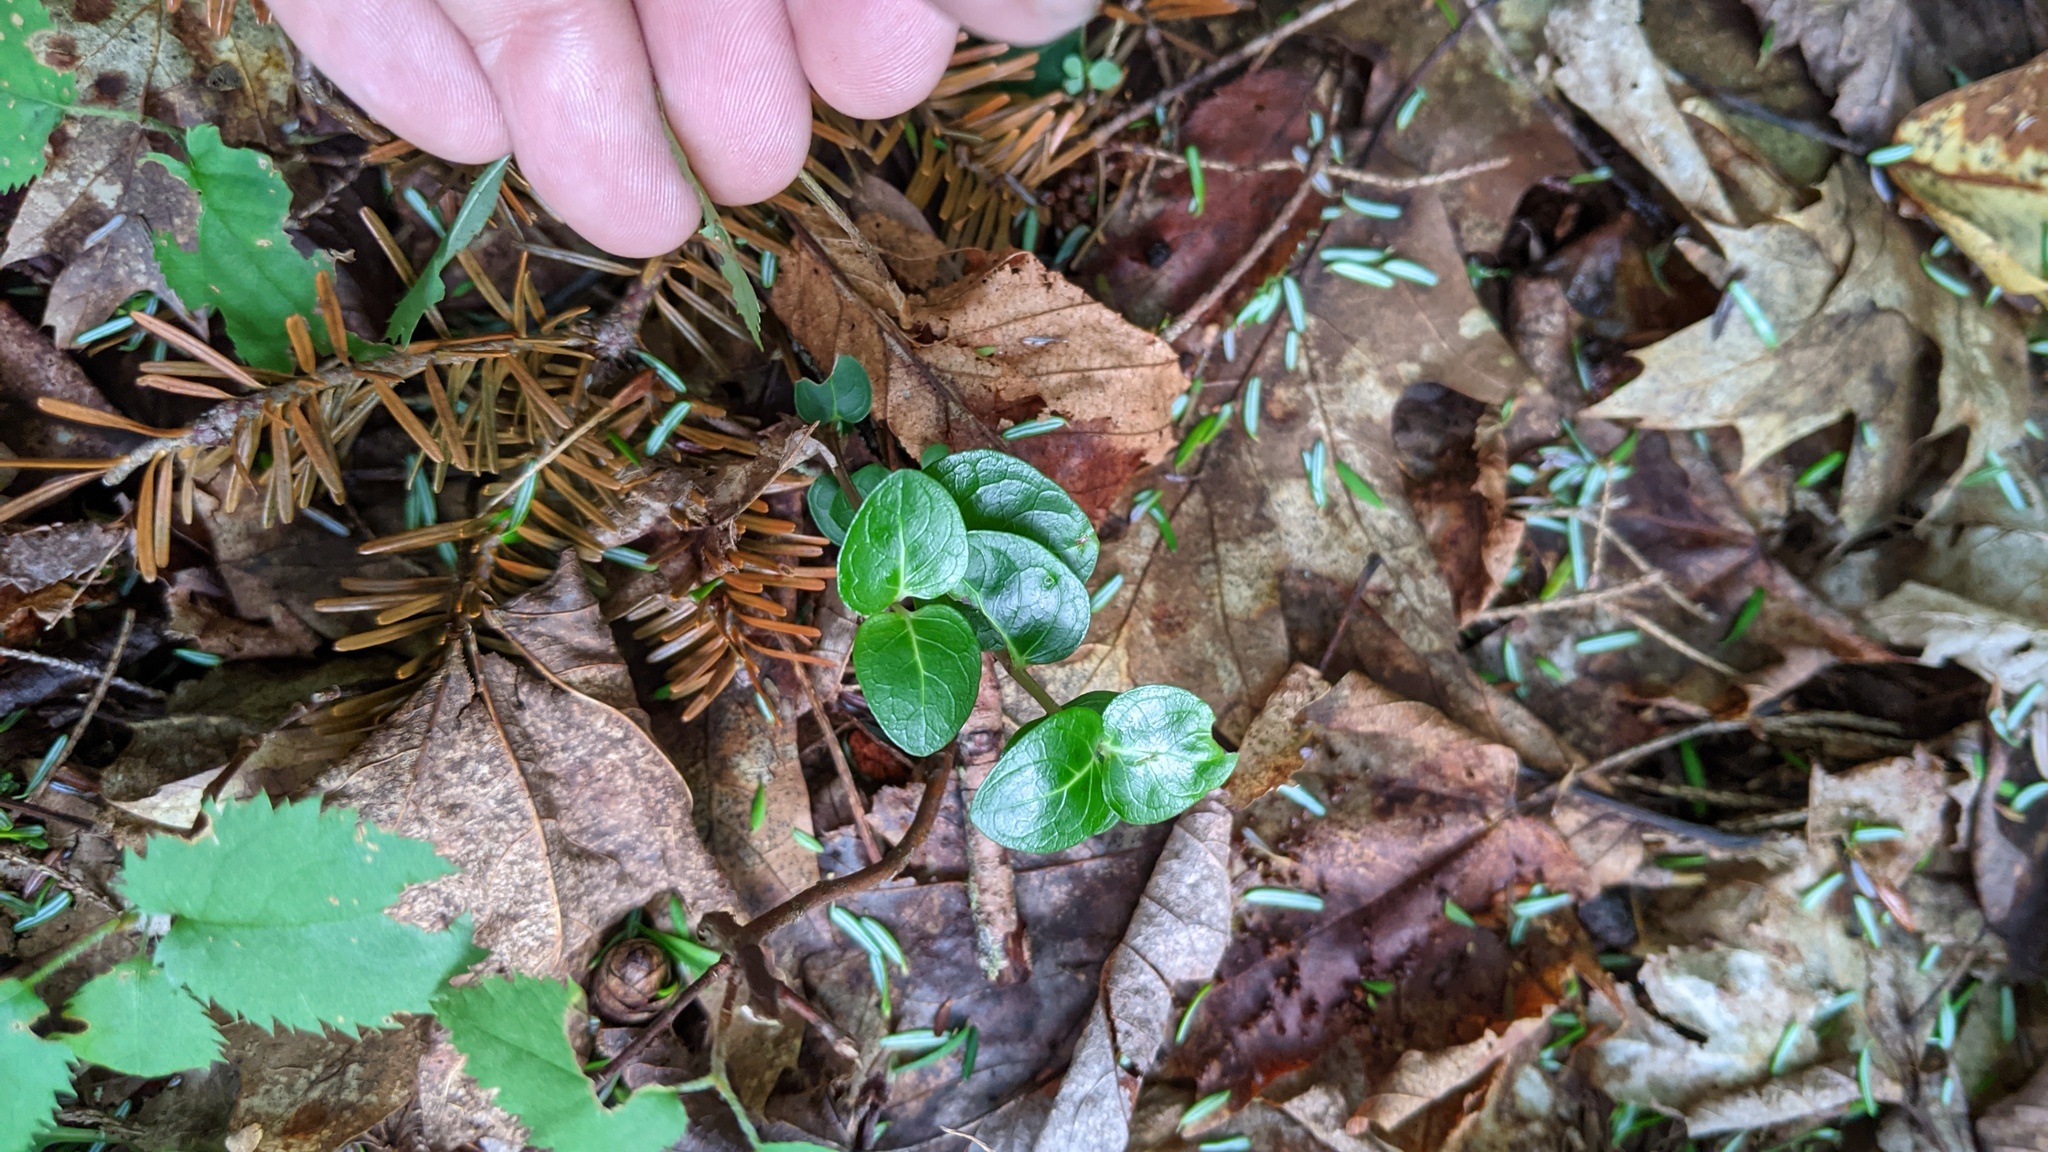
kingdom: Plantae
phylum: Tracheophyta
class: Magnoliopsida
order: Gentianales
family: Rubiaceae
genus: Mitchella
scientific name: Mitchella repens
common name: Partridge-berry
